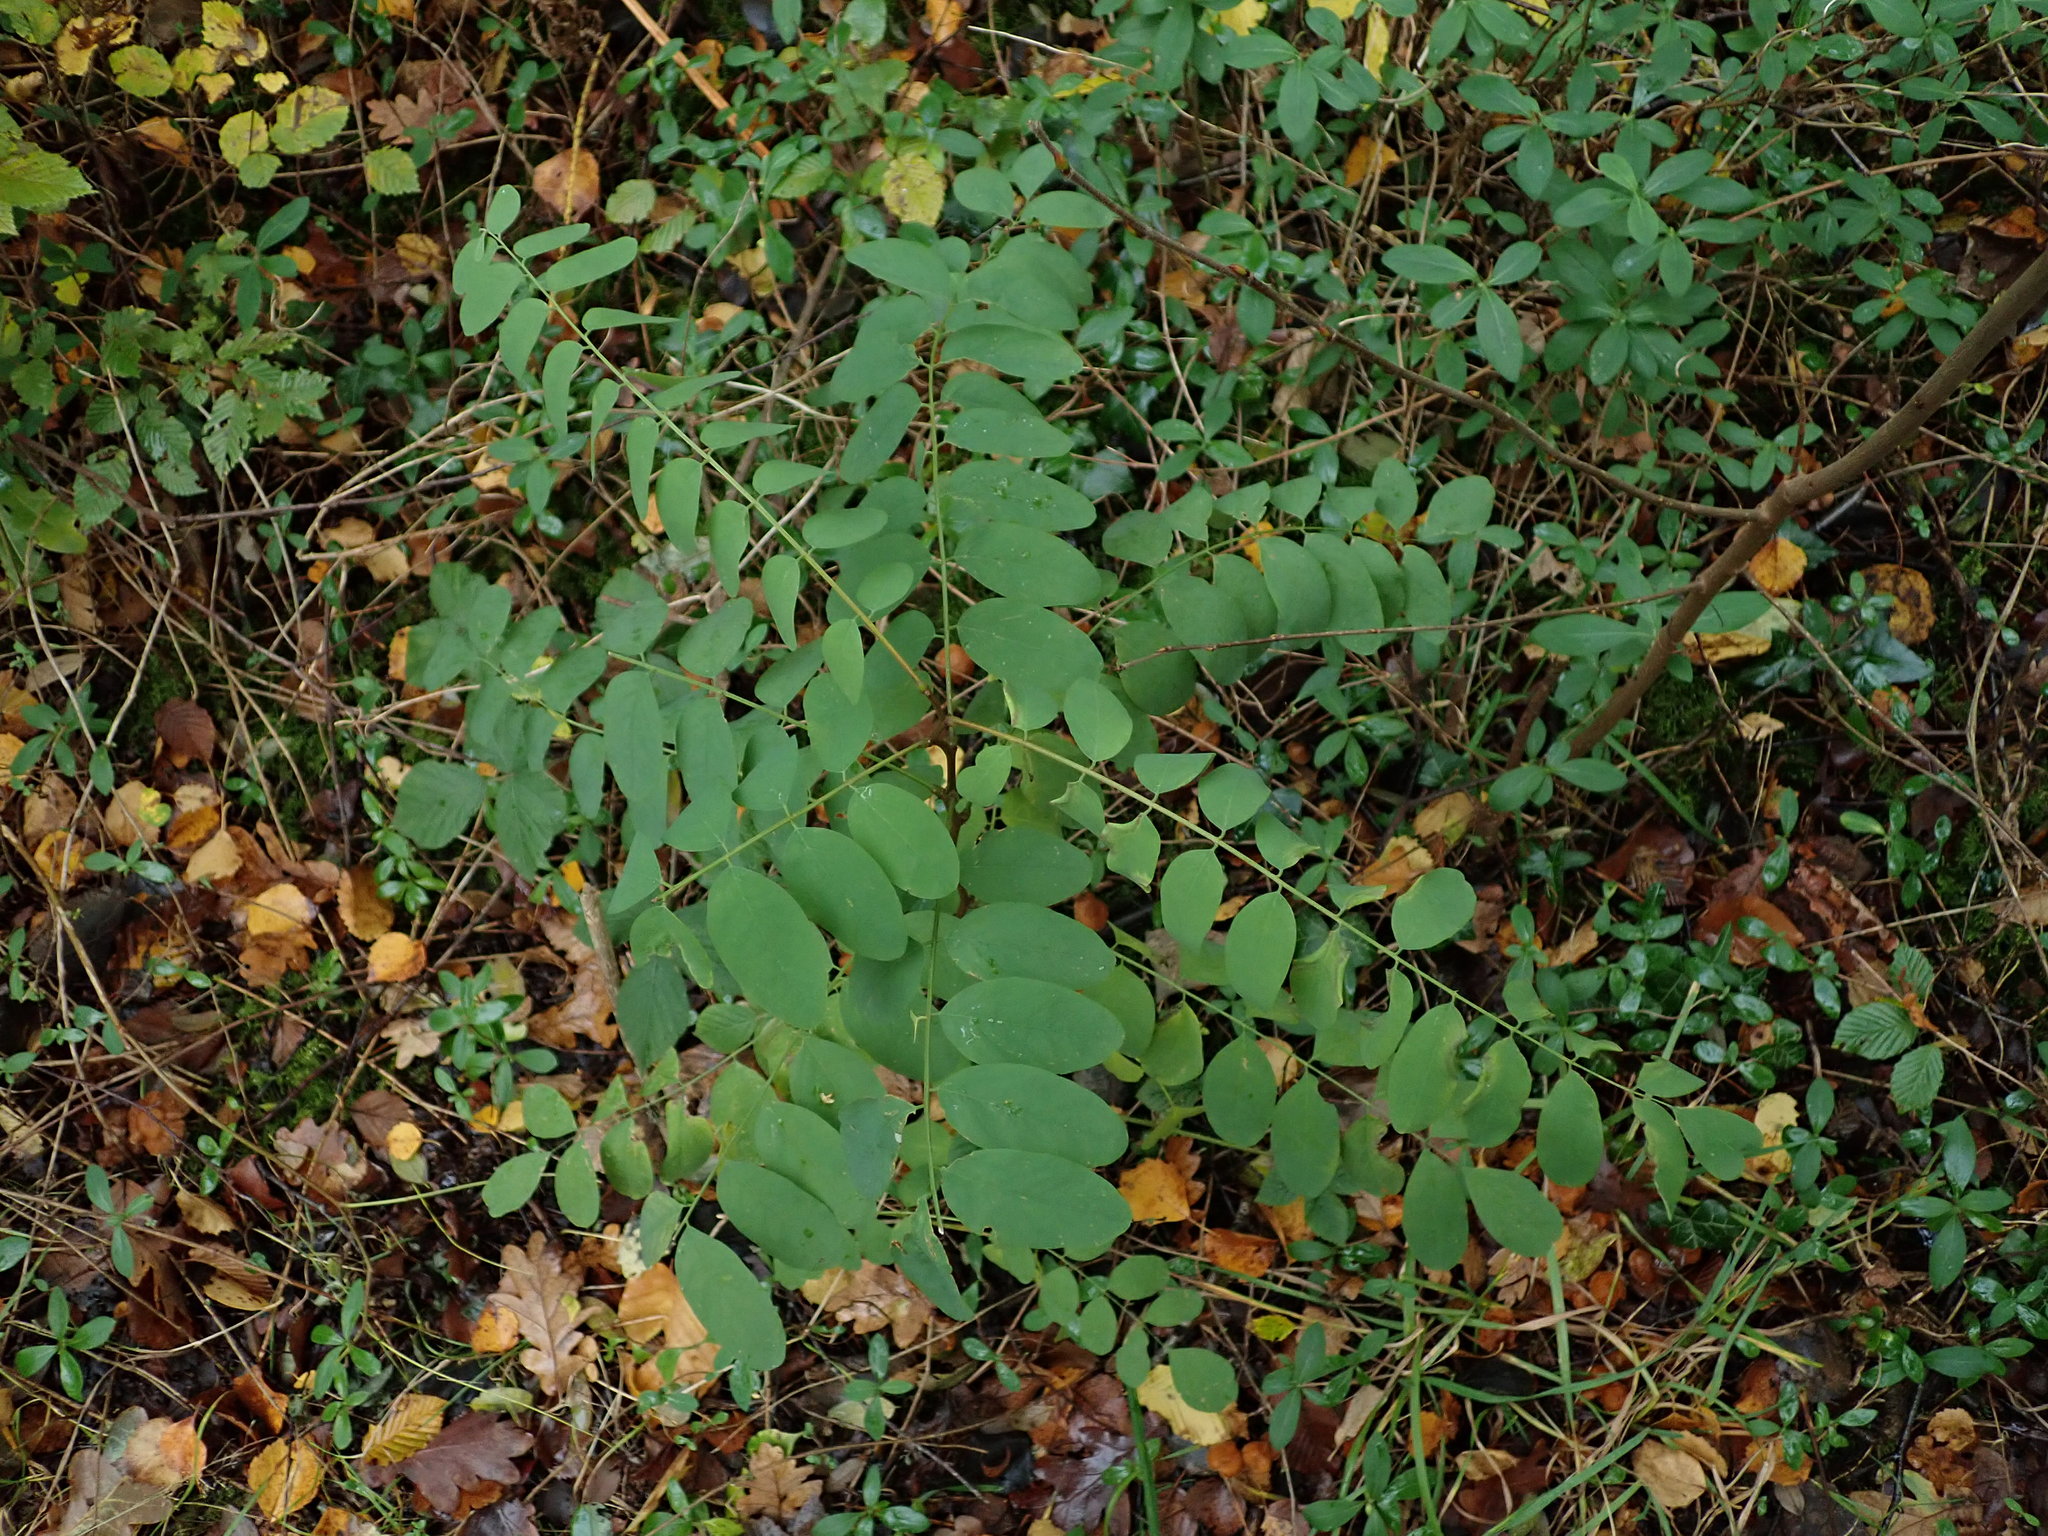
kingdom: Plantae
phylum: Tracheophyta
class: Magnoliopsida
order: Fabales
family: Fabaceae
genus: Robinia
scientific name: Robinia pseudoacacia
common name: Black locust
